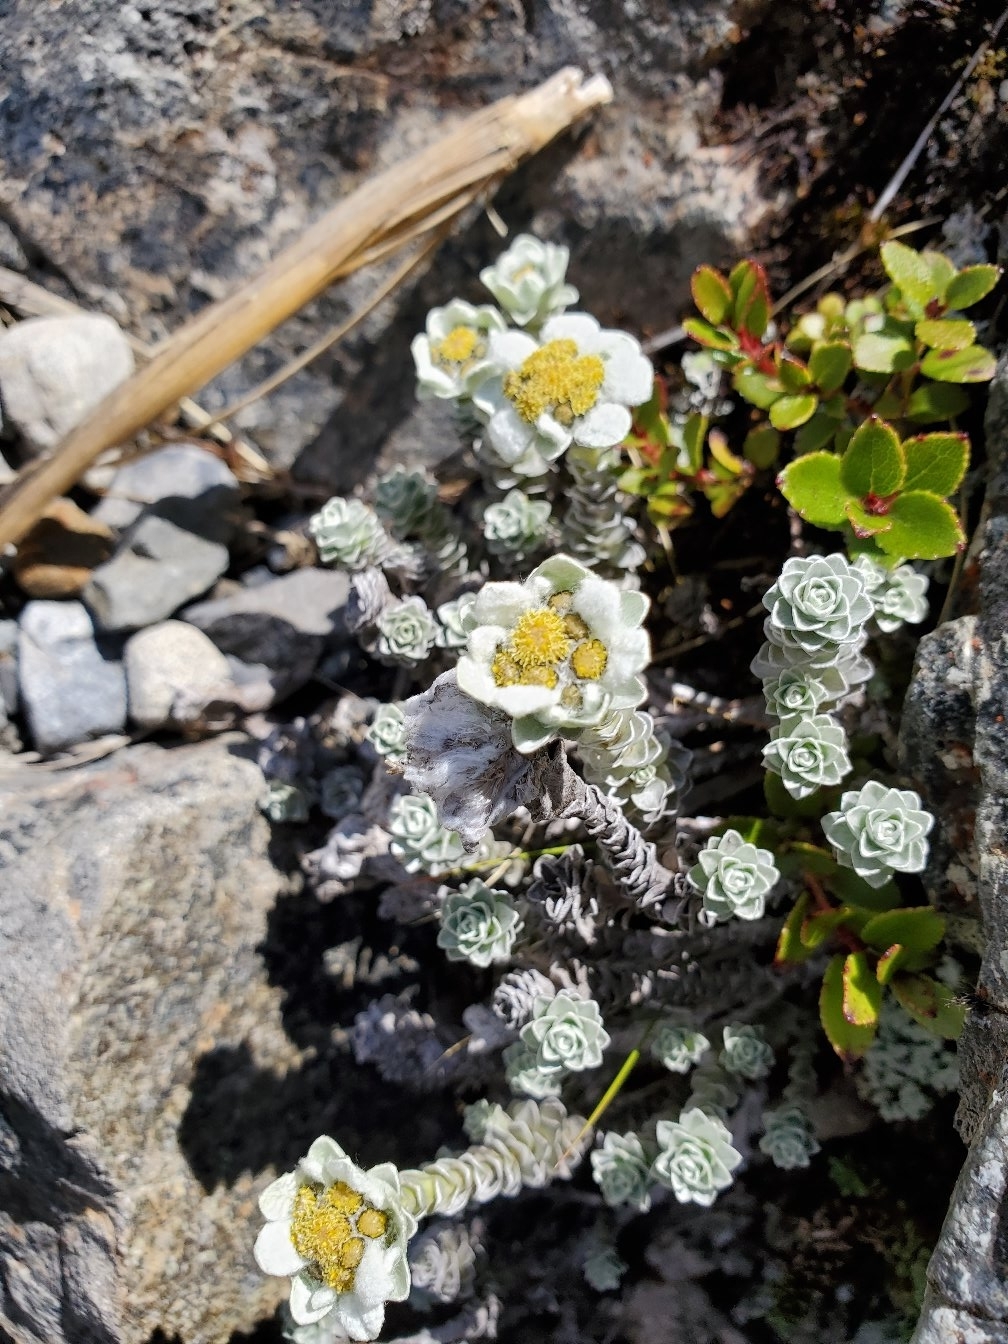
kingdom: Plantae
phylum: Tracheophyta
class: Magnoliopsida
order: Asterales
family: Asteraceae
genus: Leucogenes
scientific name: Leucogenes grandiceps
